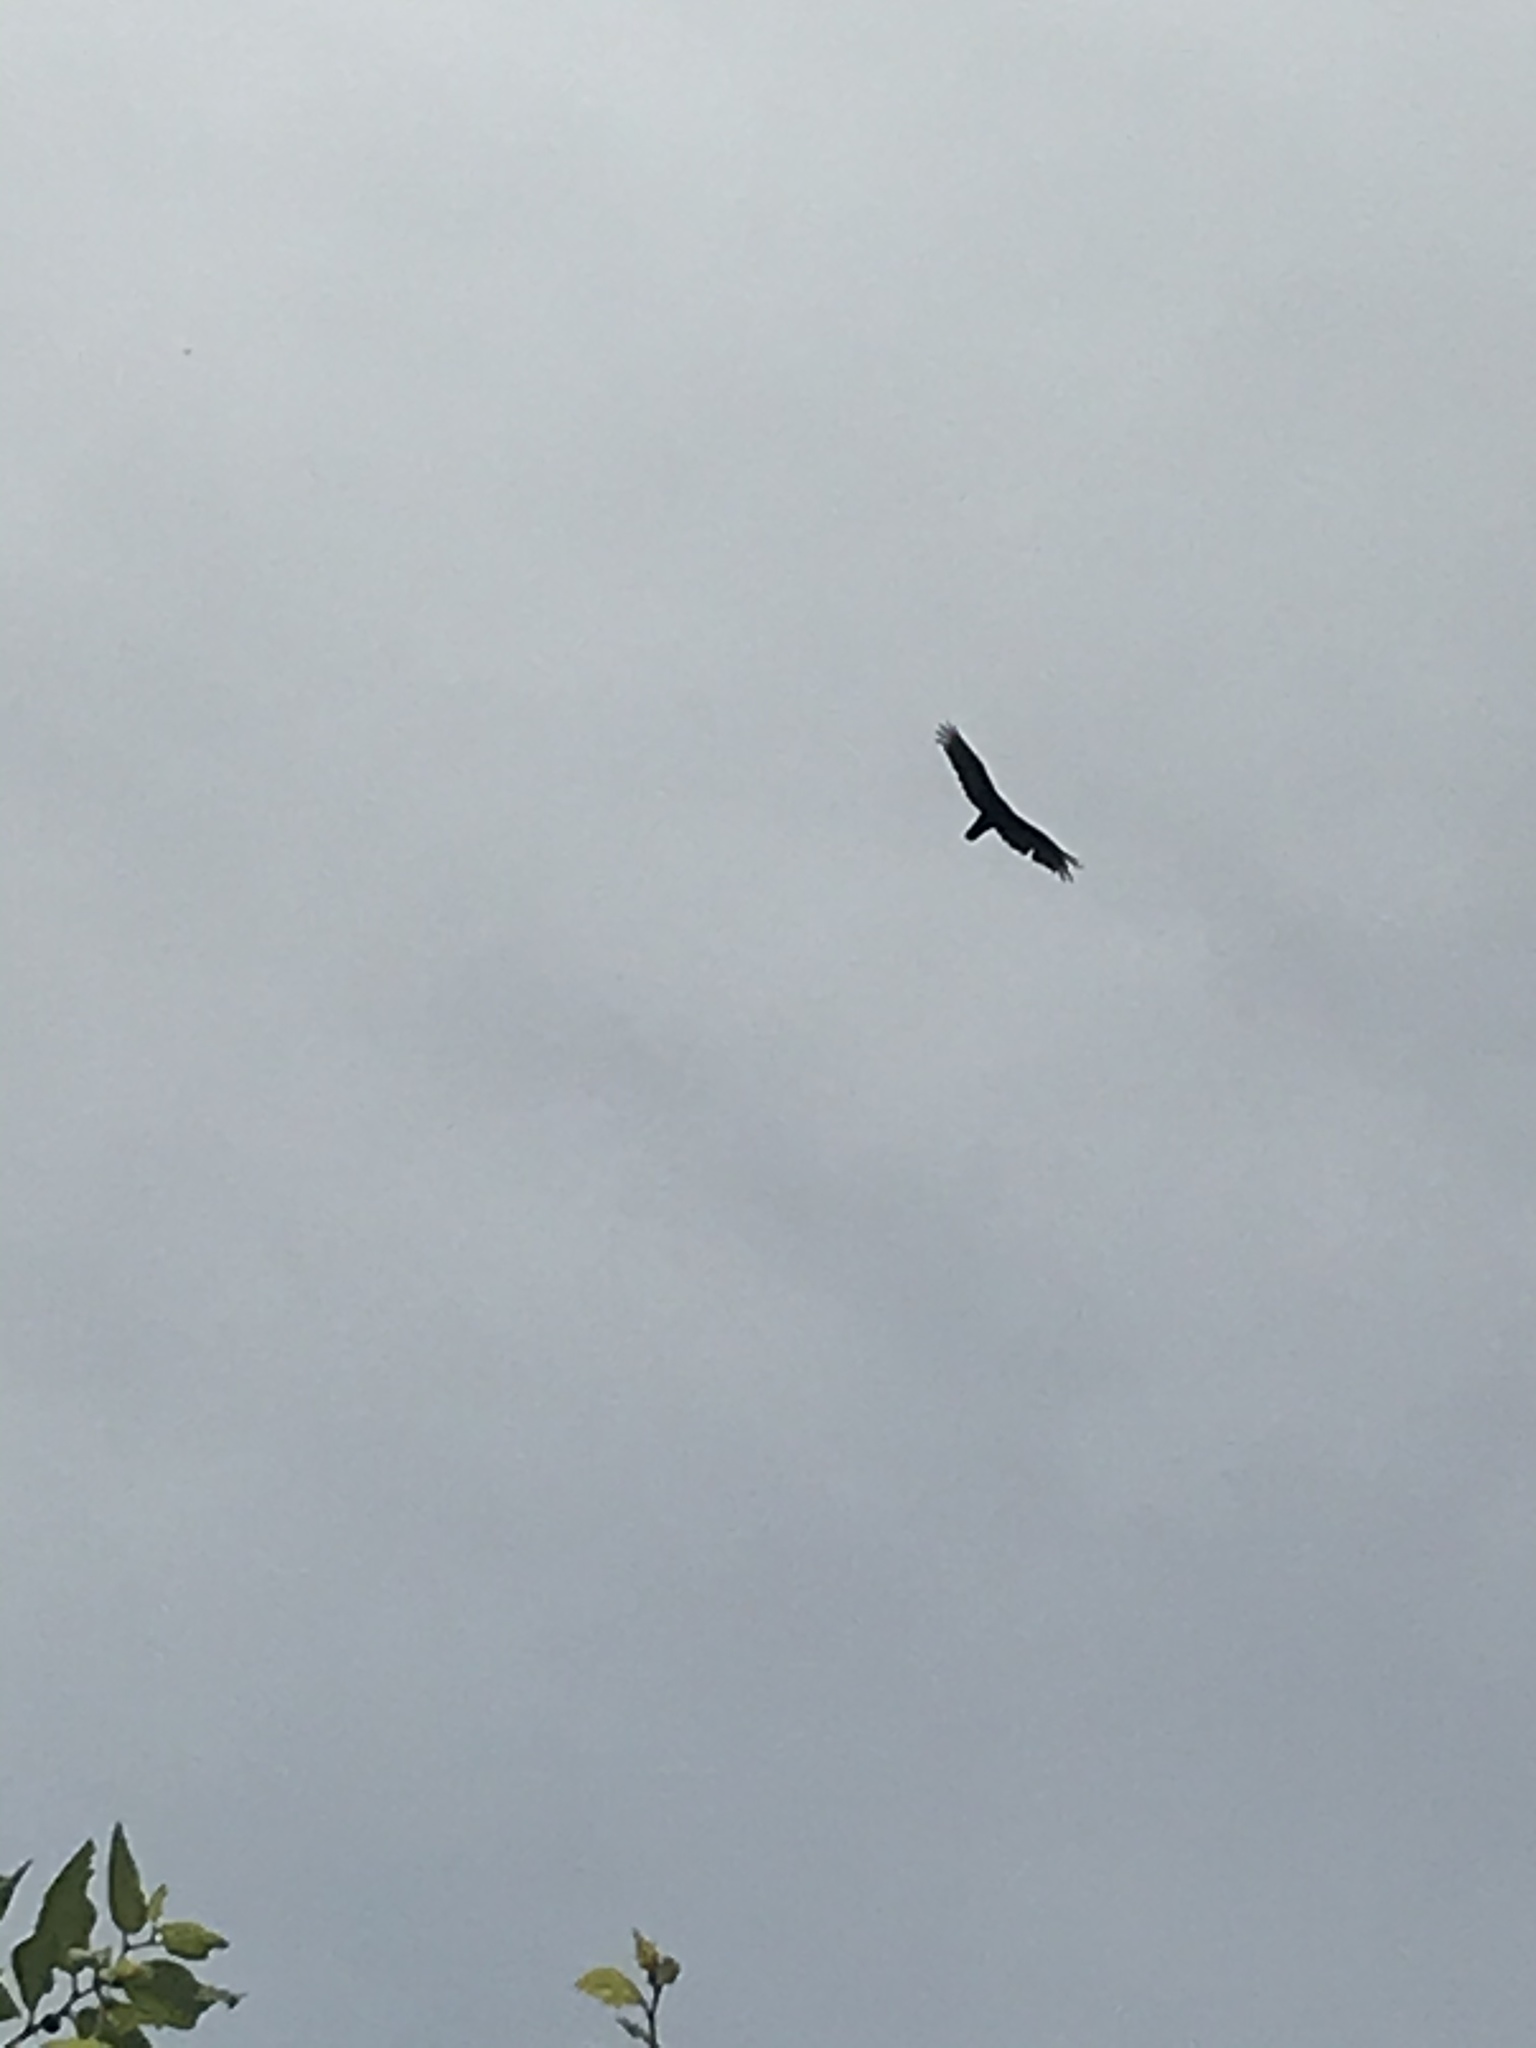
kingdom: Animalia
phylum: Chordata
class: Aves
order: Accipitriformes
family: Cathartidae
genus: Cathartes
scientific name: Cathartes aura
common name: Turkey vulture
